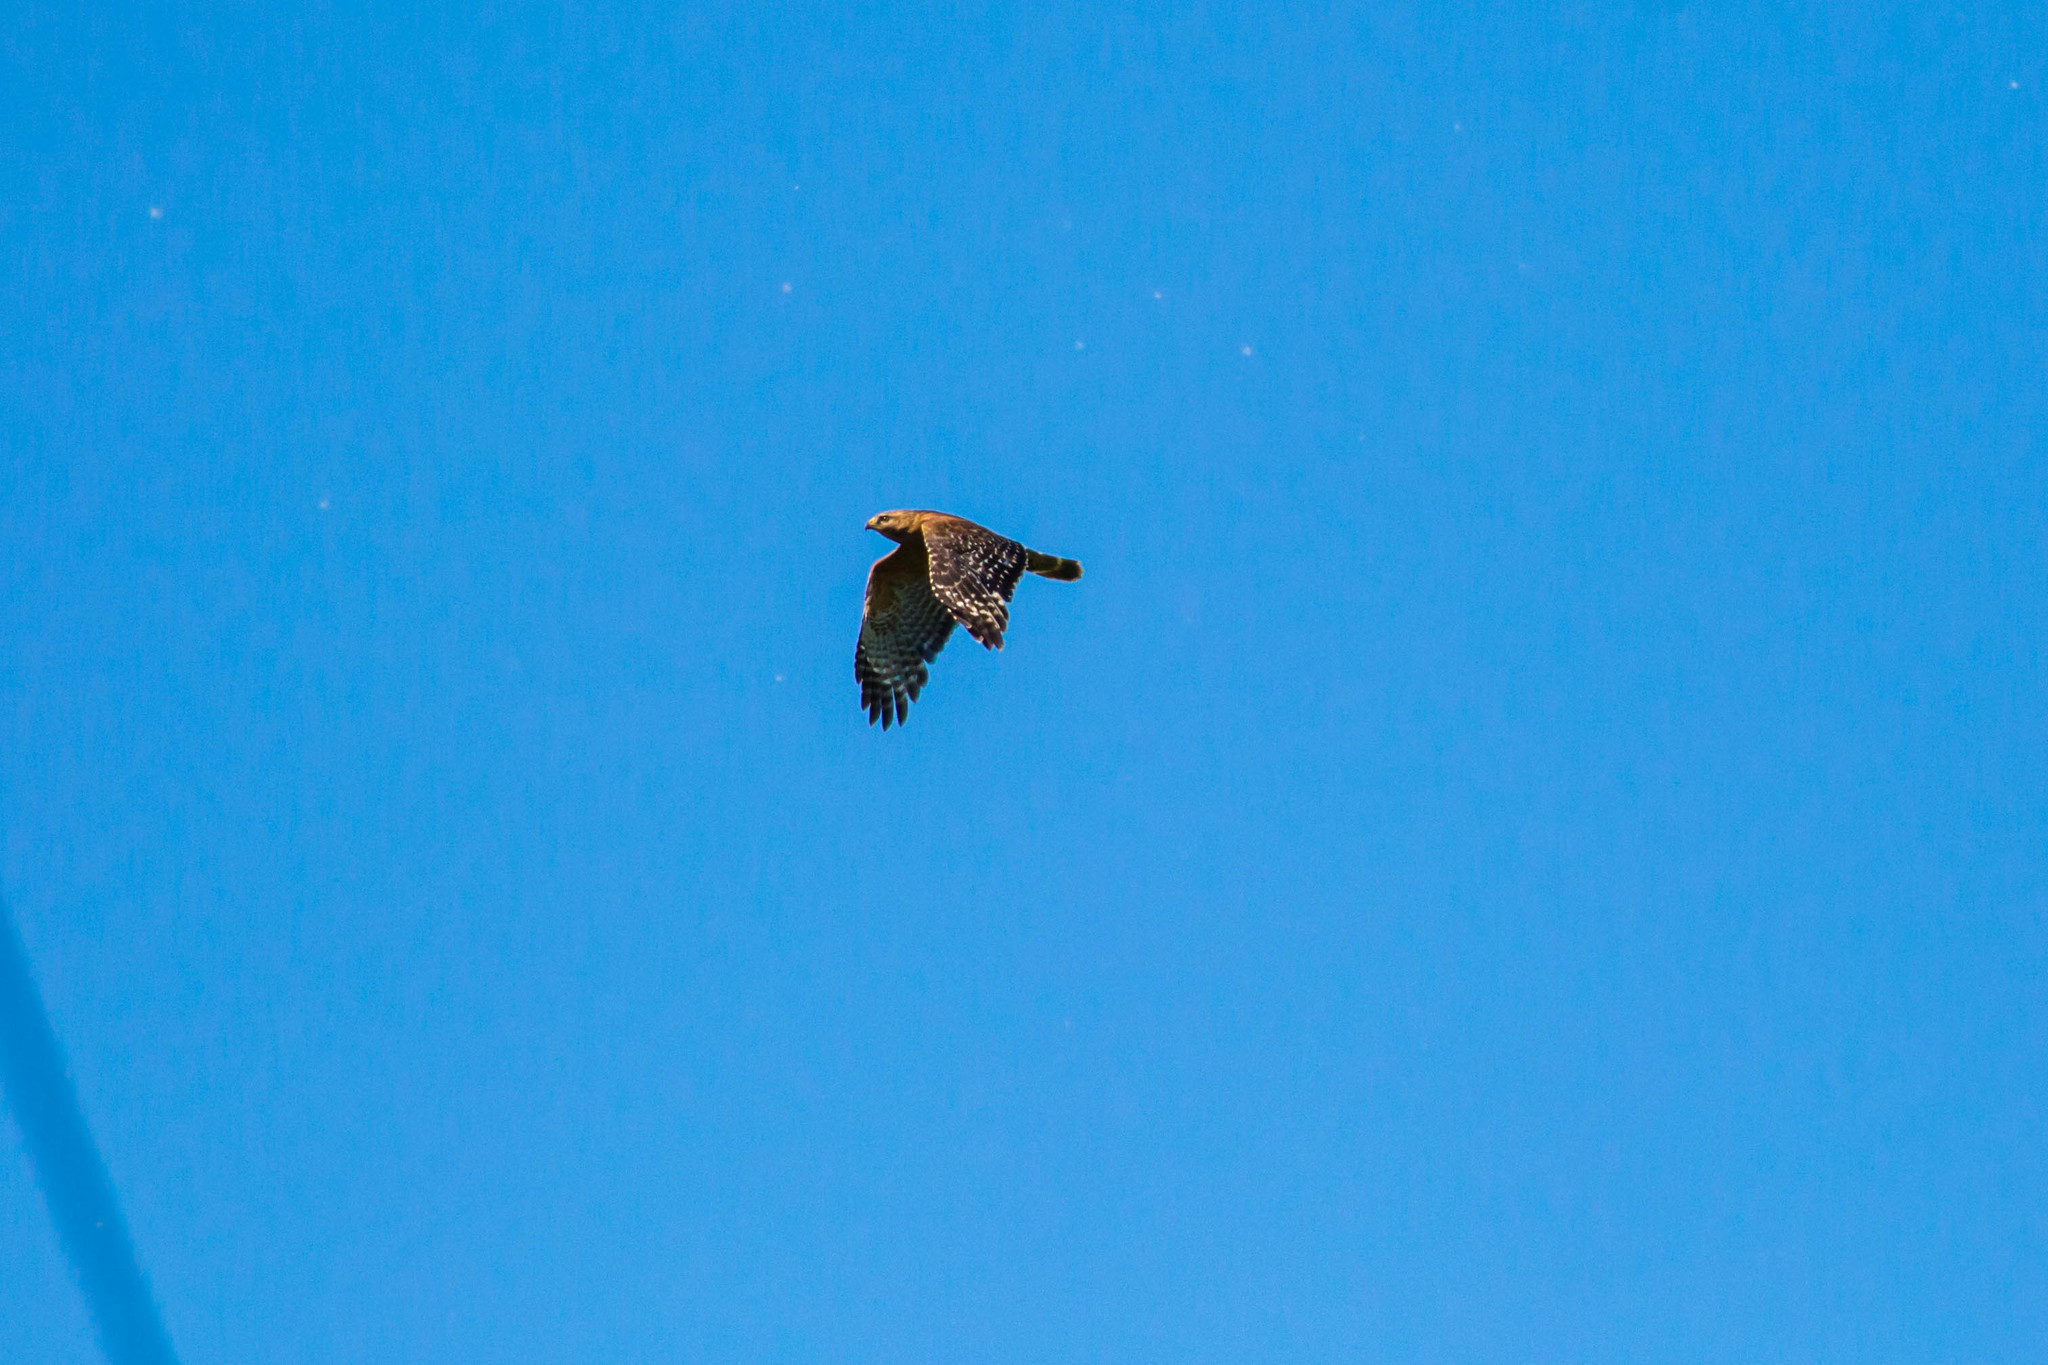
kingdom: Animalia
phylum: Chordata
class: Aves
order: Accipitriformes
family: Accipitridae
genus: Buteo
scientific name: Buteo lineatus
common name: Red-shouldered hawk
